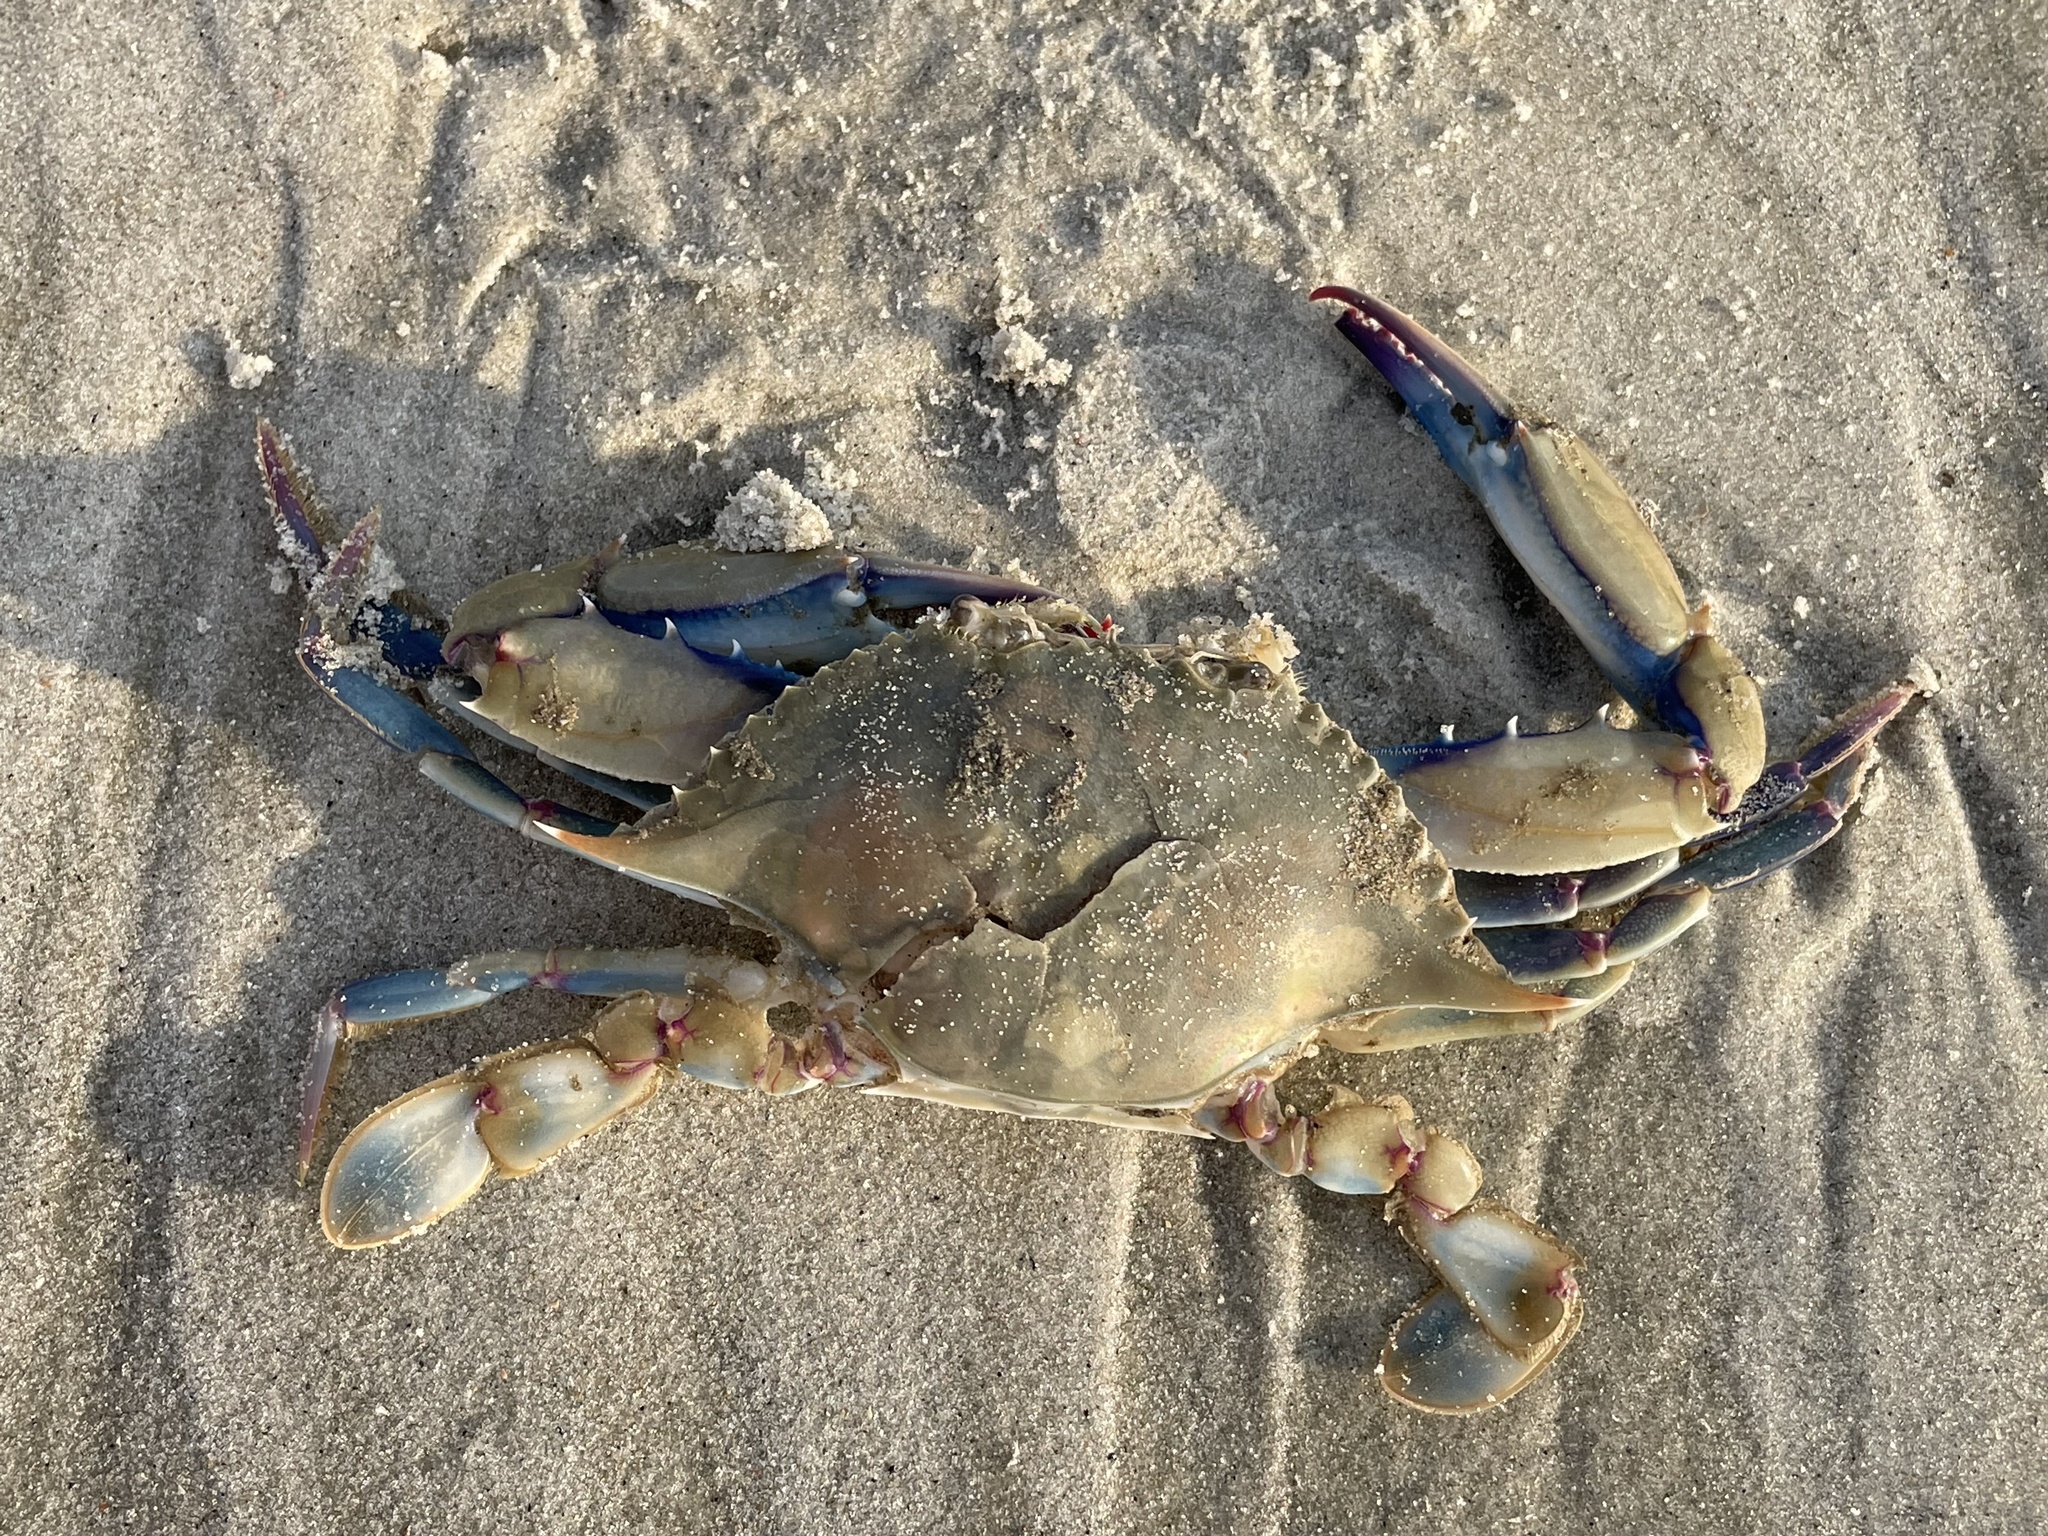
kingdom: Animalia
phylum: Arthropoda
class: Malacostraca
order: Decapoda
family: Portunidae
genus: Callinectes
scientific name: Callinectes similis
